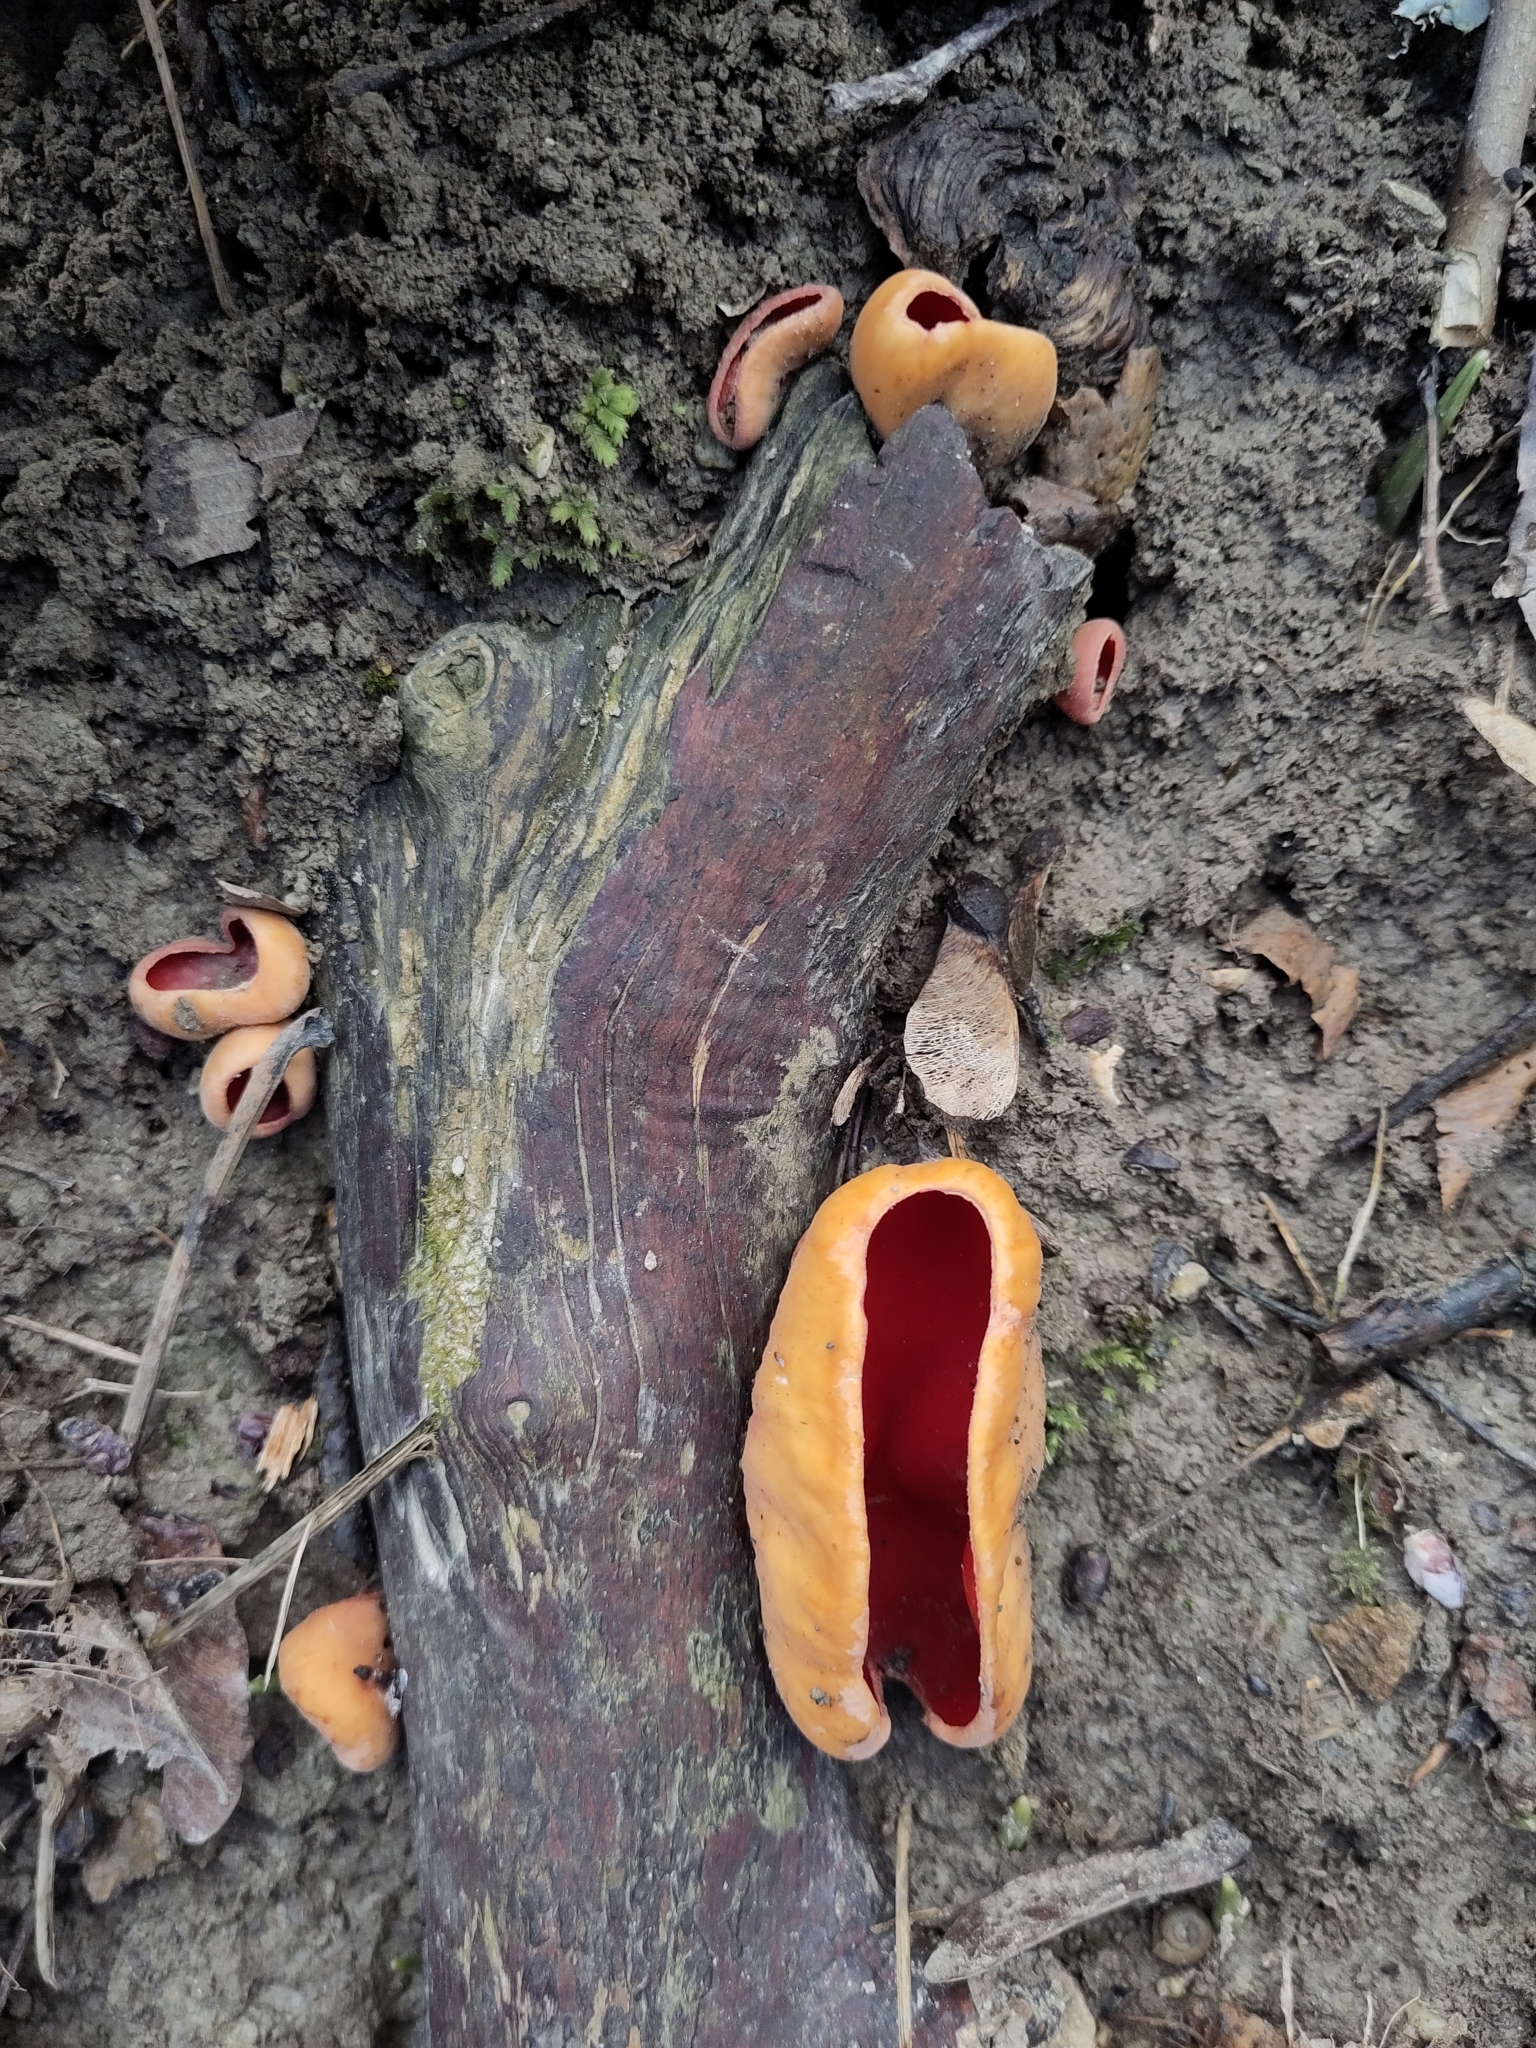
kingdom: Fungi
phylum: Ascomycota
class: Pezizomycetes
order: Pezizales
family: Sarcoscyphaceae
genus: Sarcoscypha
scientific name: Sarcoscypha
